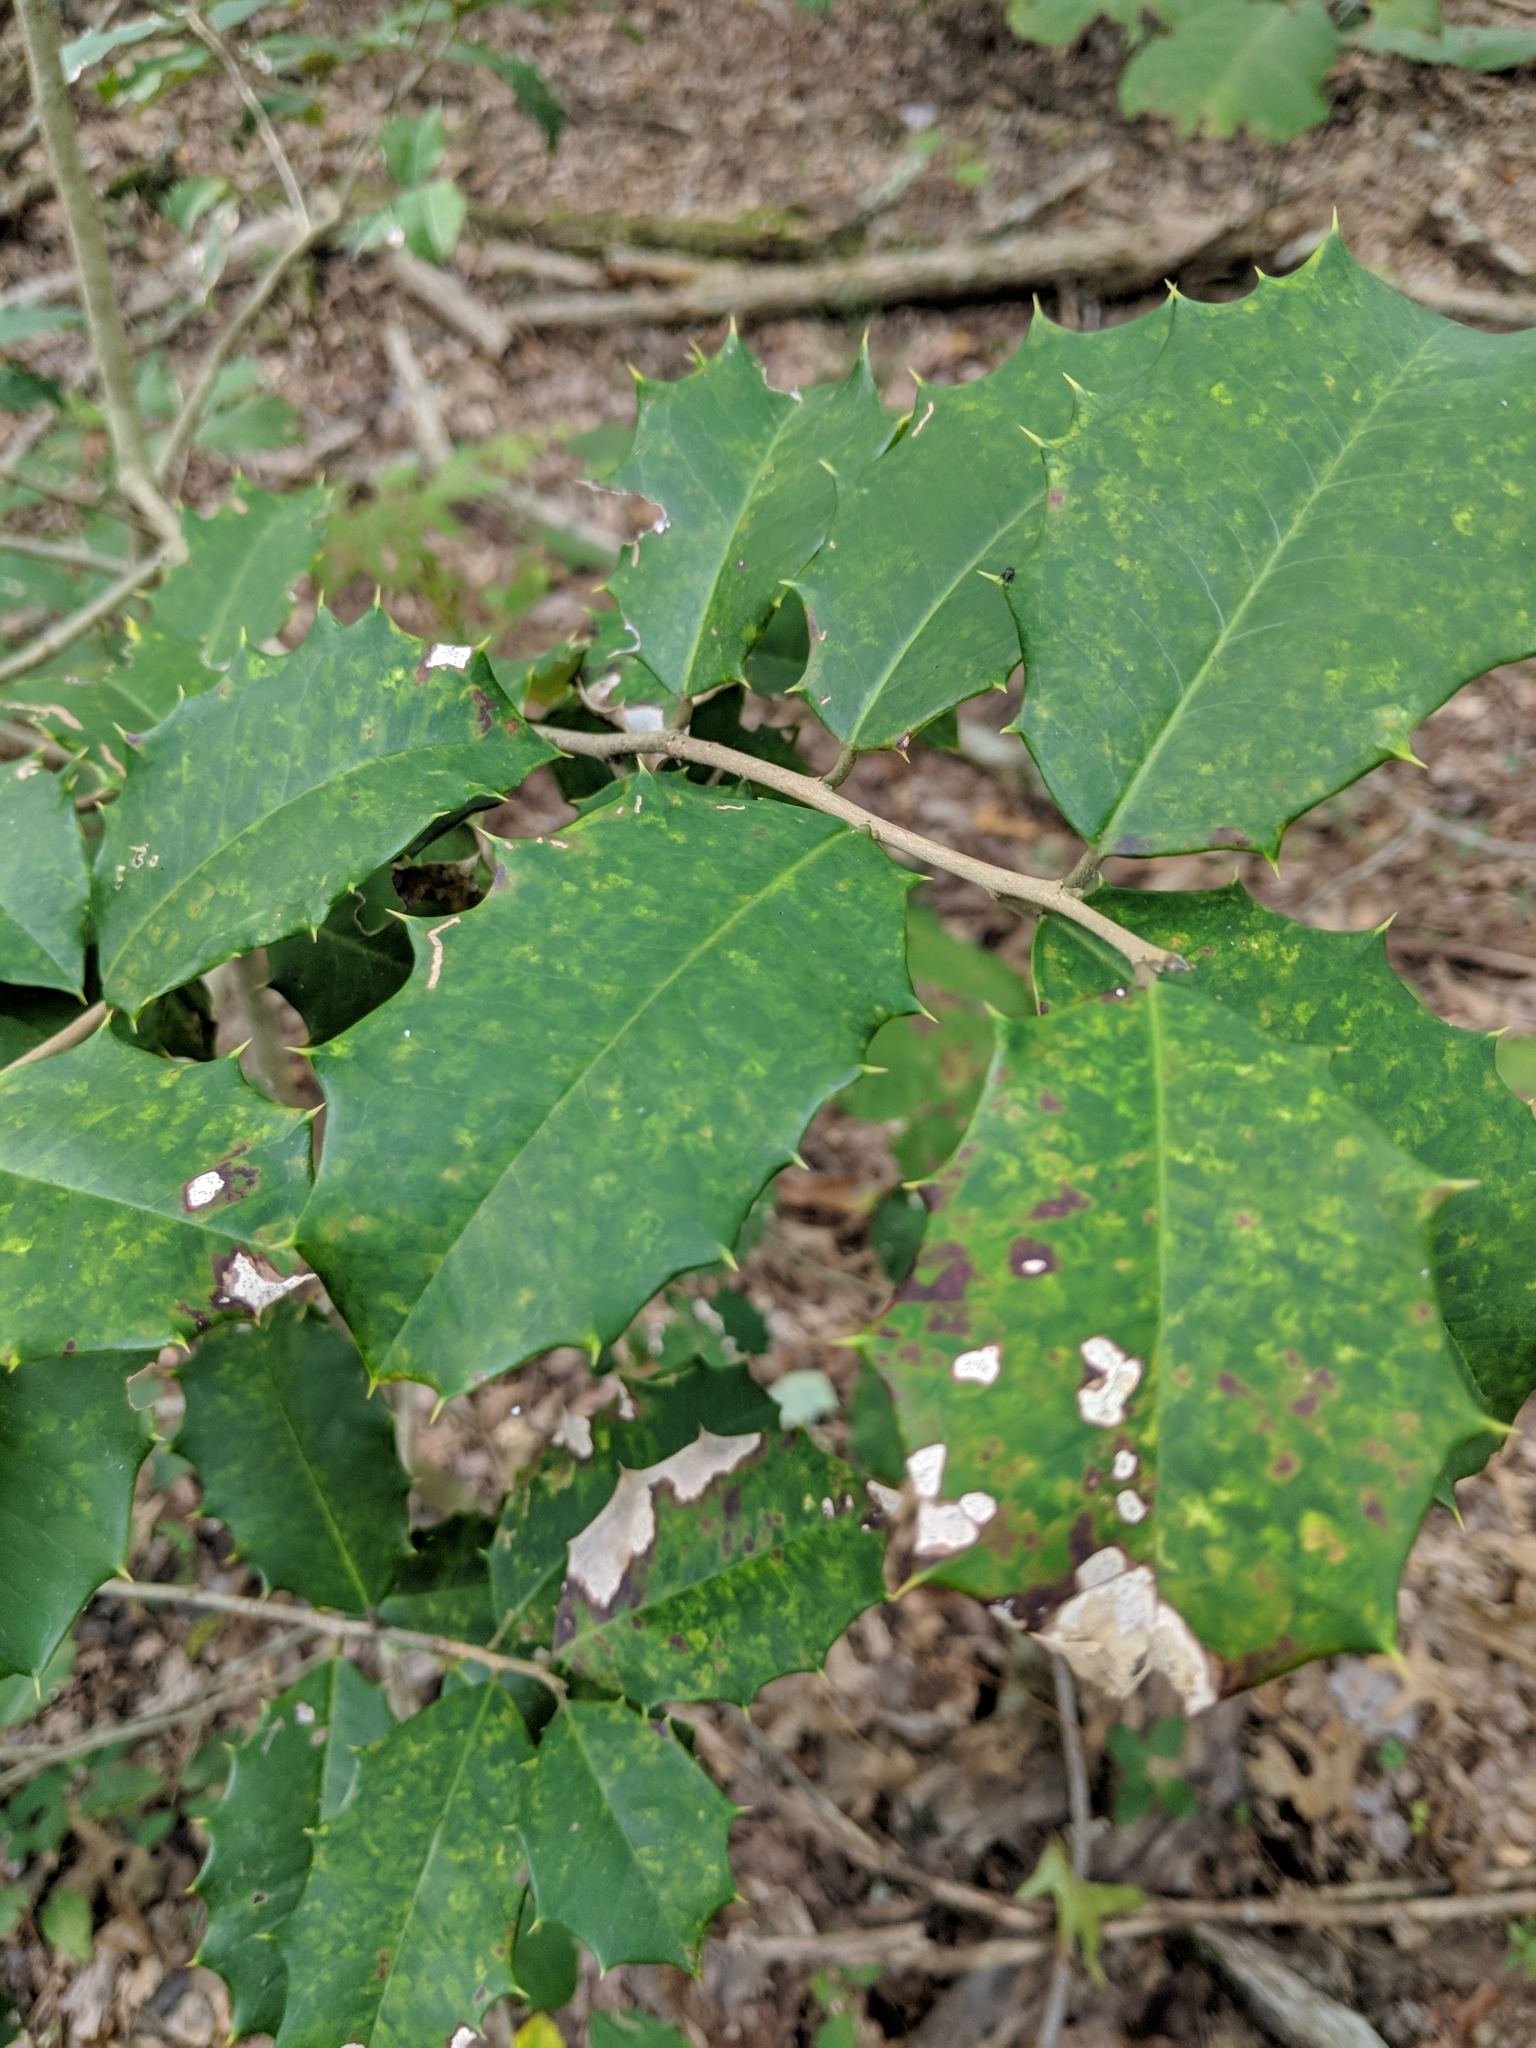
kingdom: Plantae
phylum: Tracheophyta
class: Magnoliopsida
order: Aquifoliales
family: Aquifoliaceae
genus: Ilex
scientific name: Ilex opaca
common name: American holly
